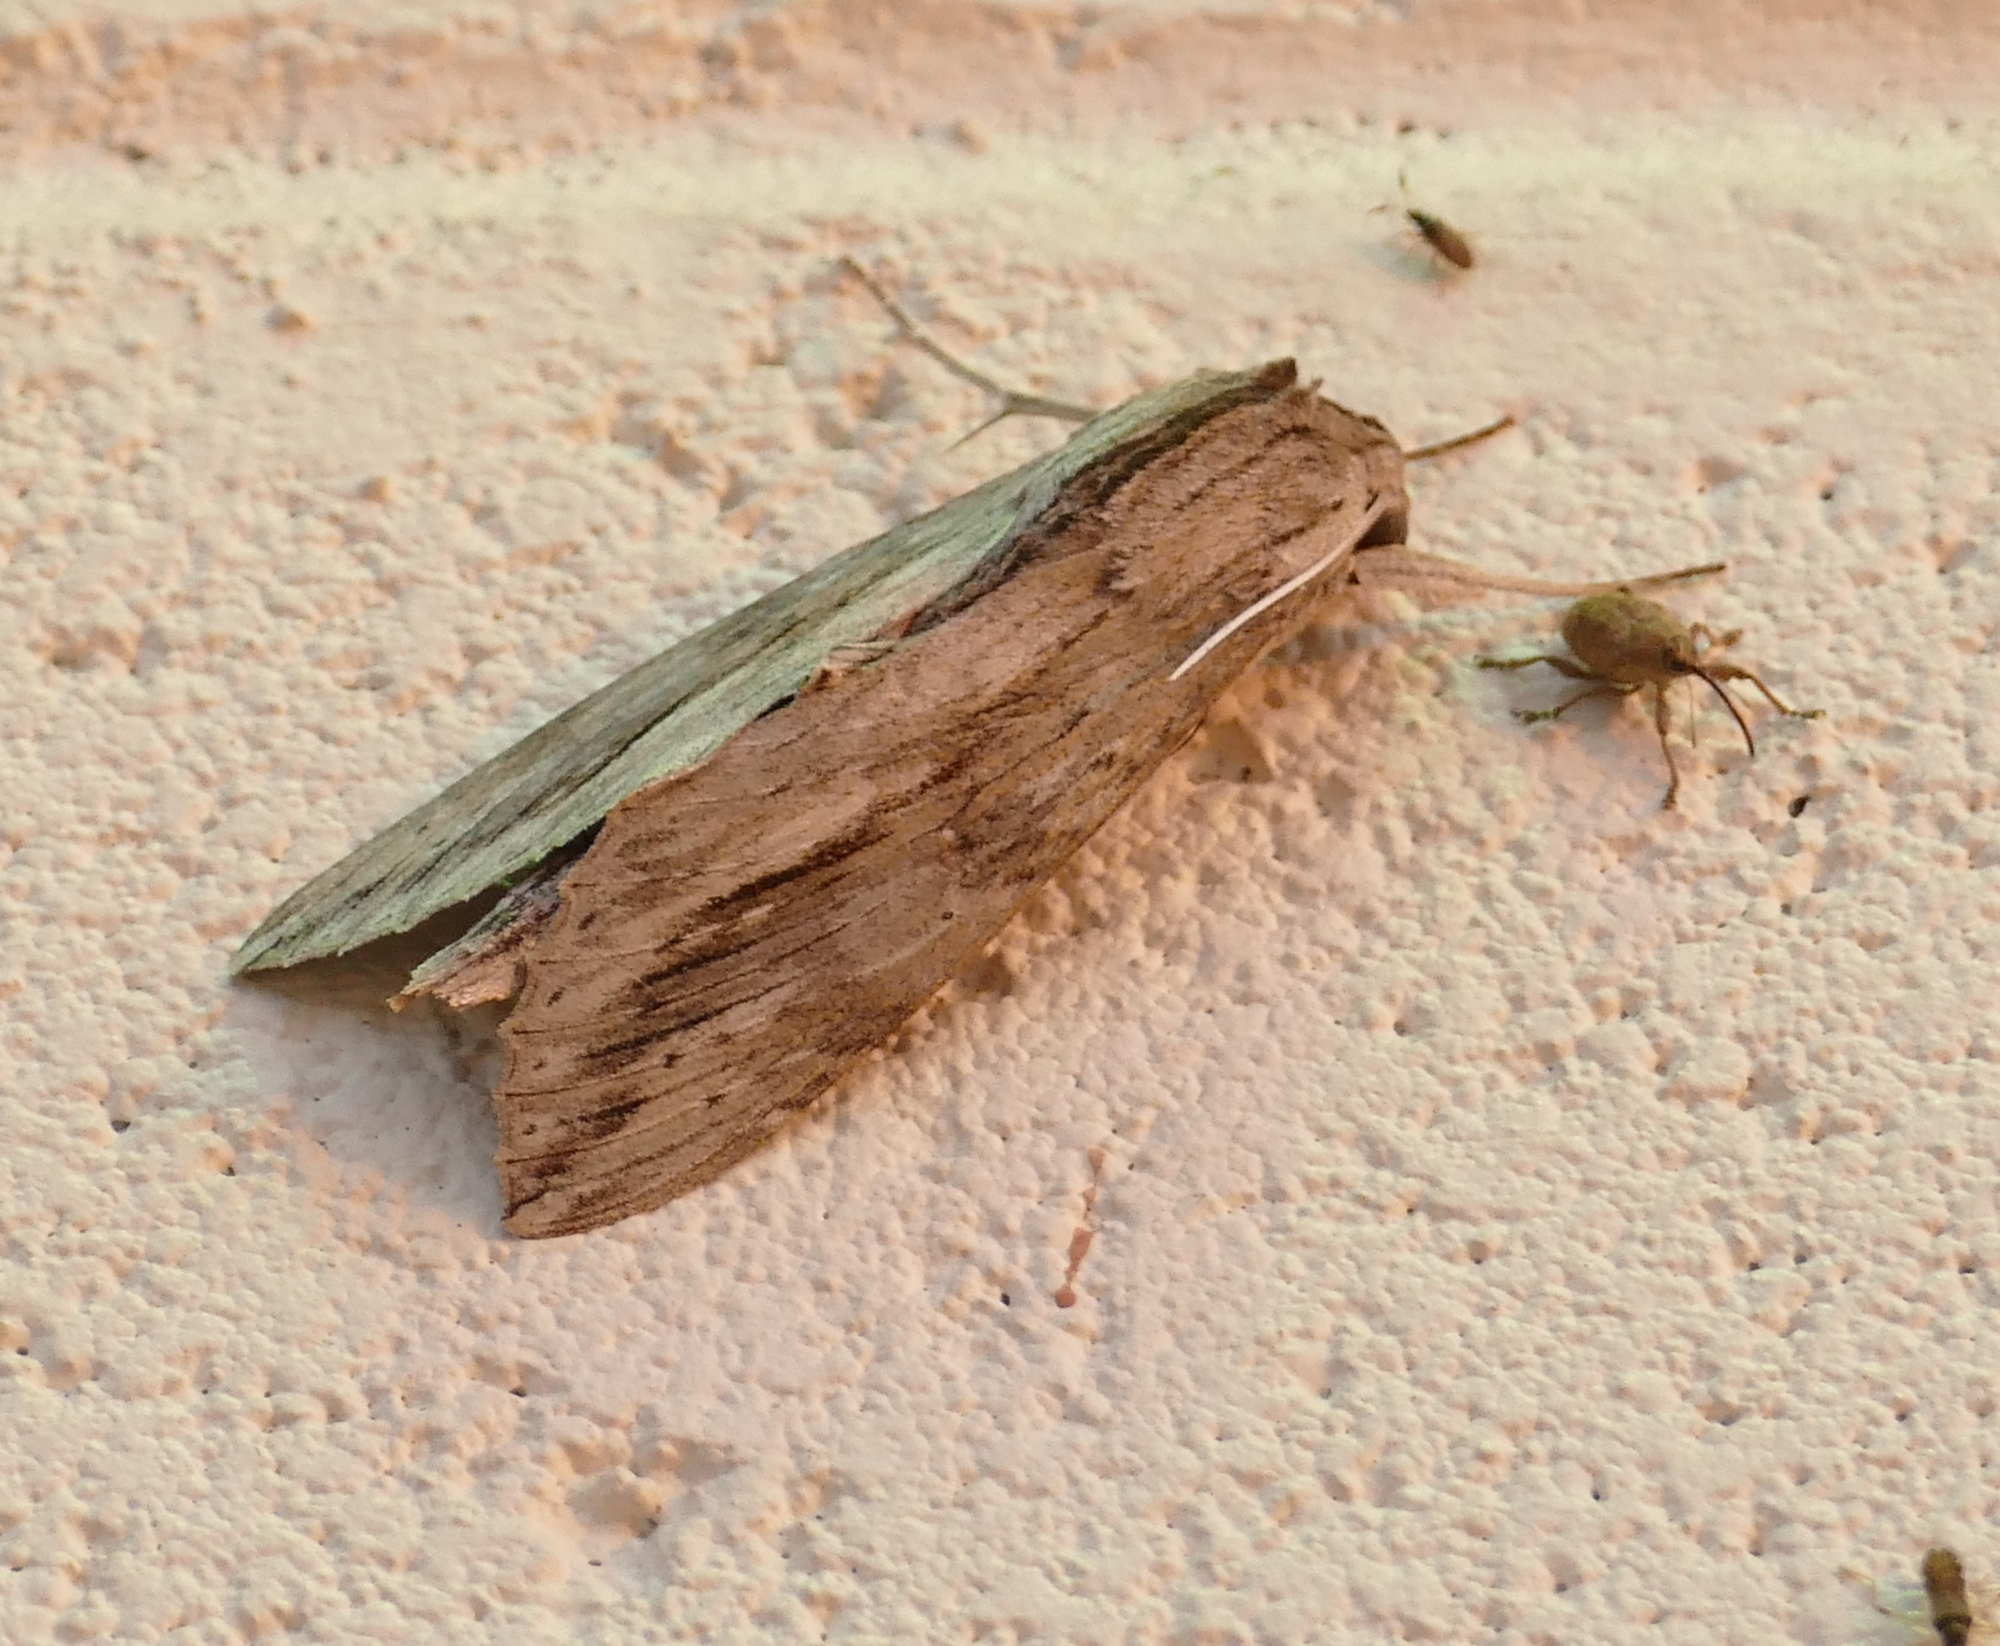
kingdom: Animalia
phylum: Arthropoda
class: Insecta
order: Lepidoptera
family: Sphingidae
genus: Erinnyis
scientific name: Erinnyis ello
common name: Ello sphinx
